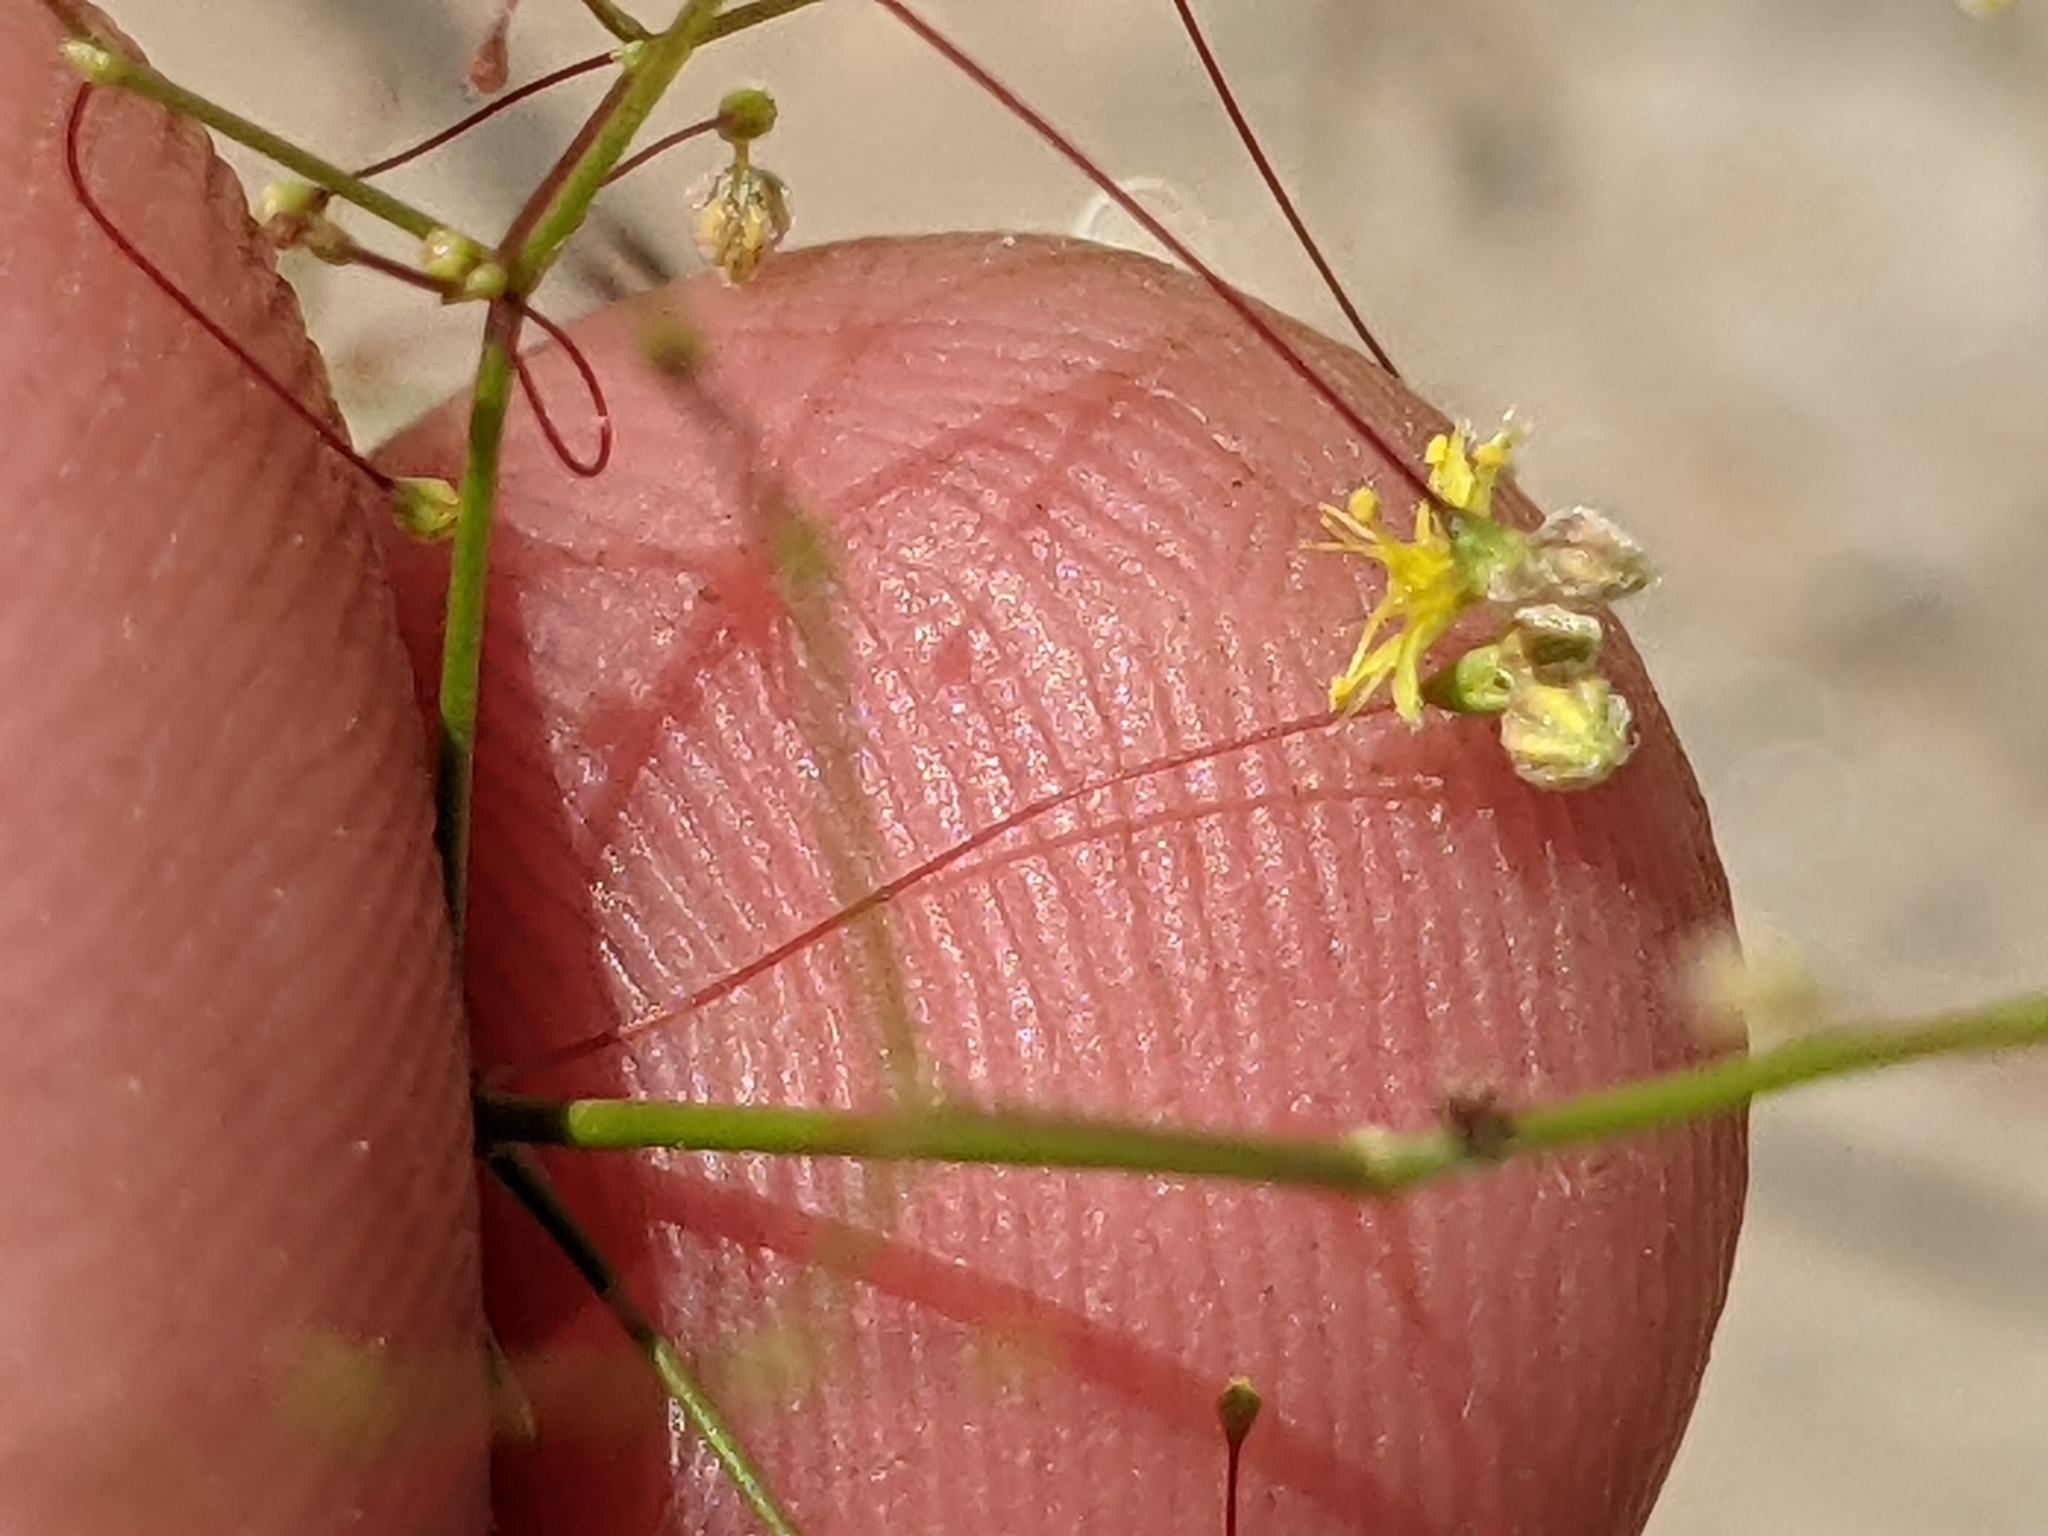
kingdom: Plantae
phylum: Tracheophyta
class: Magnoliopsida
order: Caryophyllales
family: Polygonaceae
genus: Eriogonum
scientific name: Eriogonum trichopes
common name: Little desert trumpet
